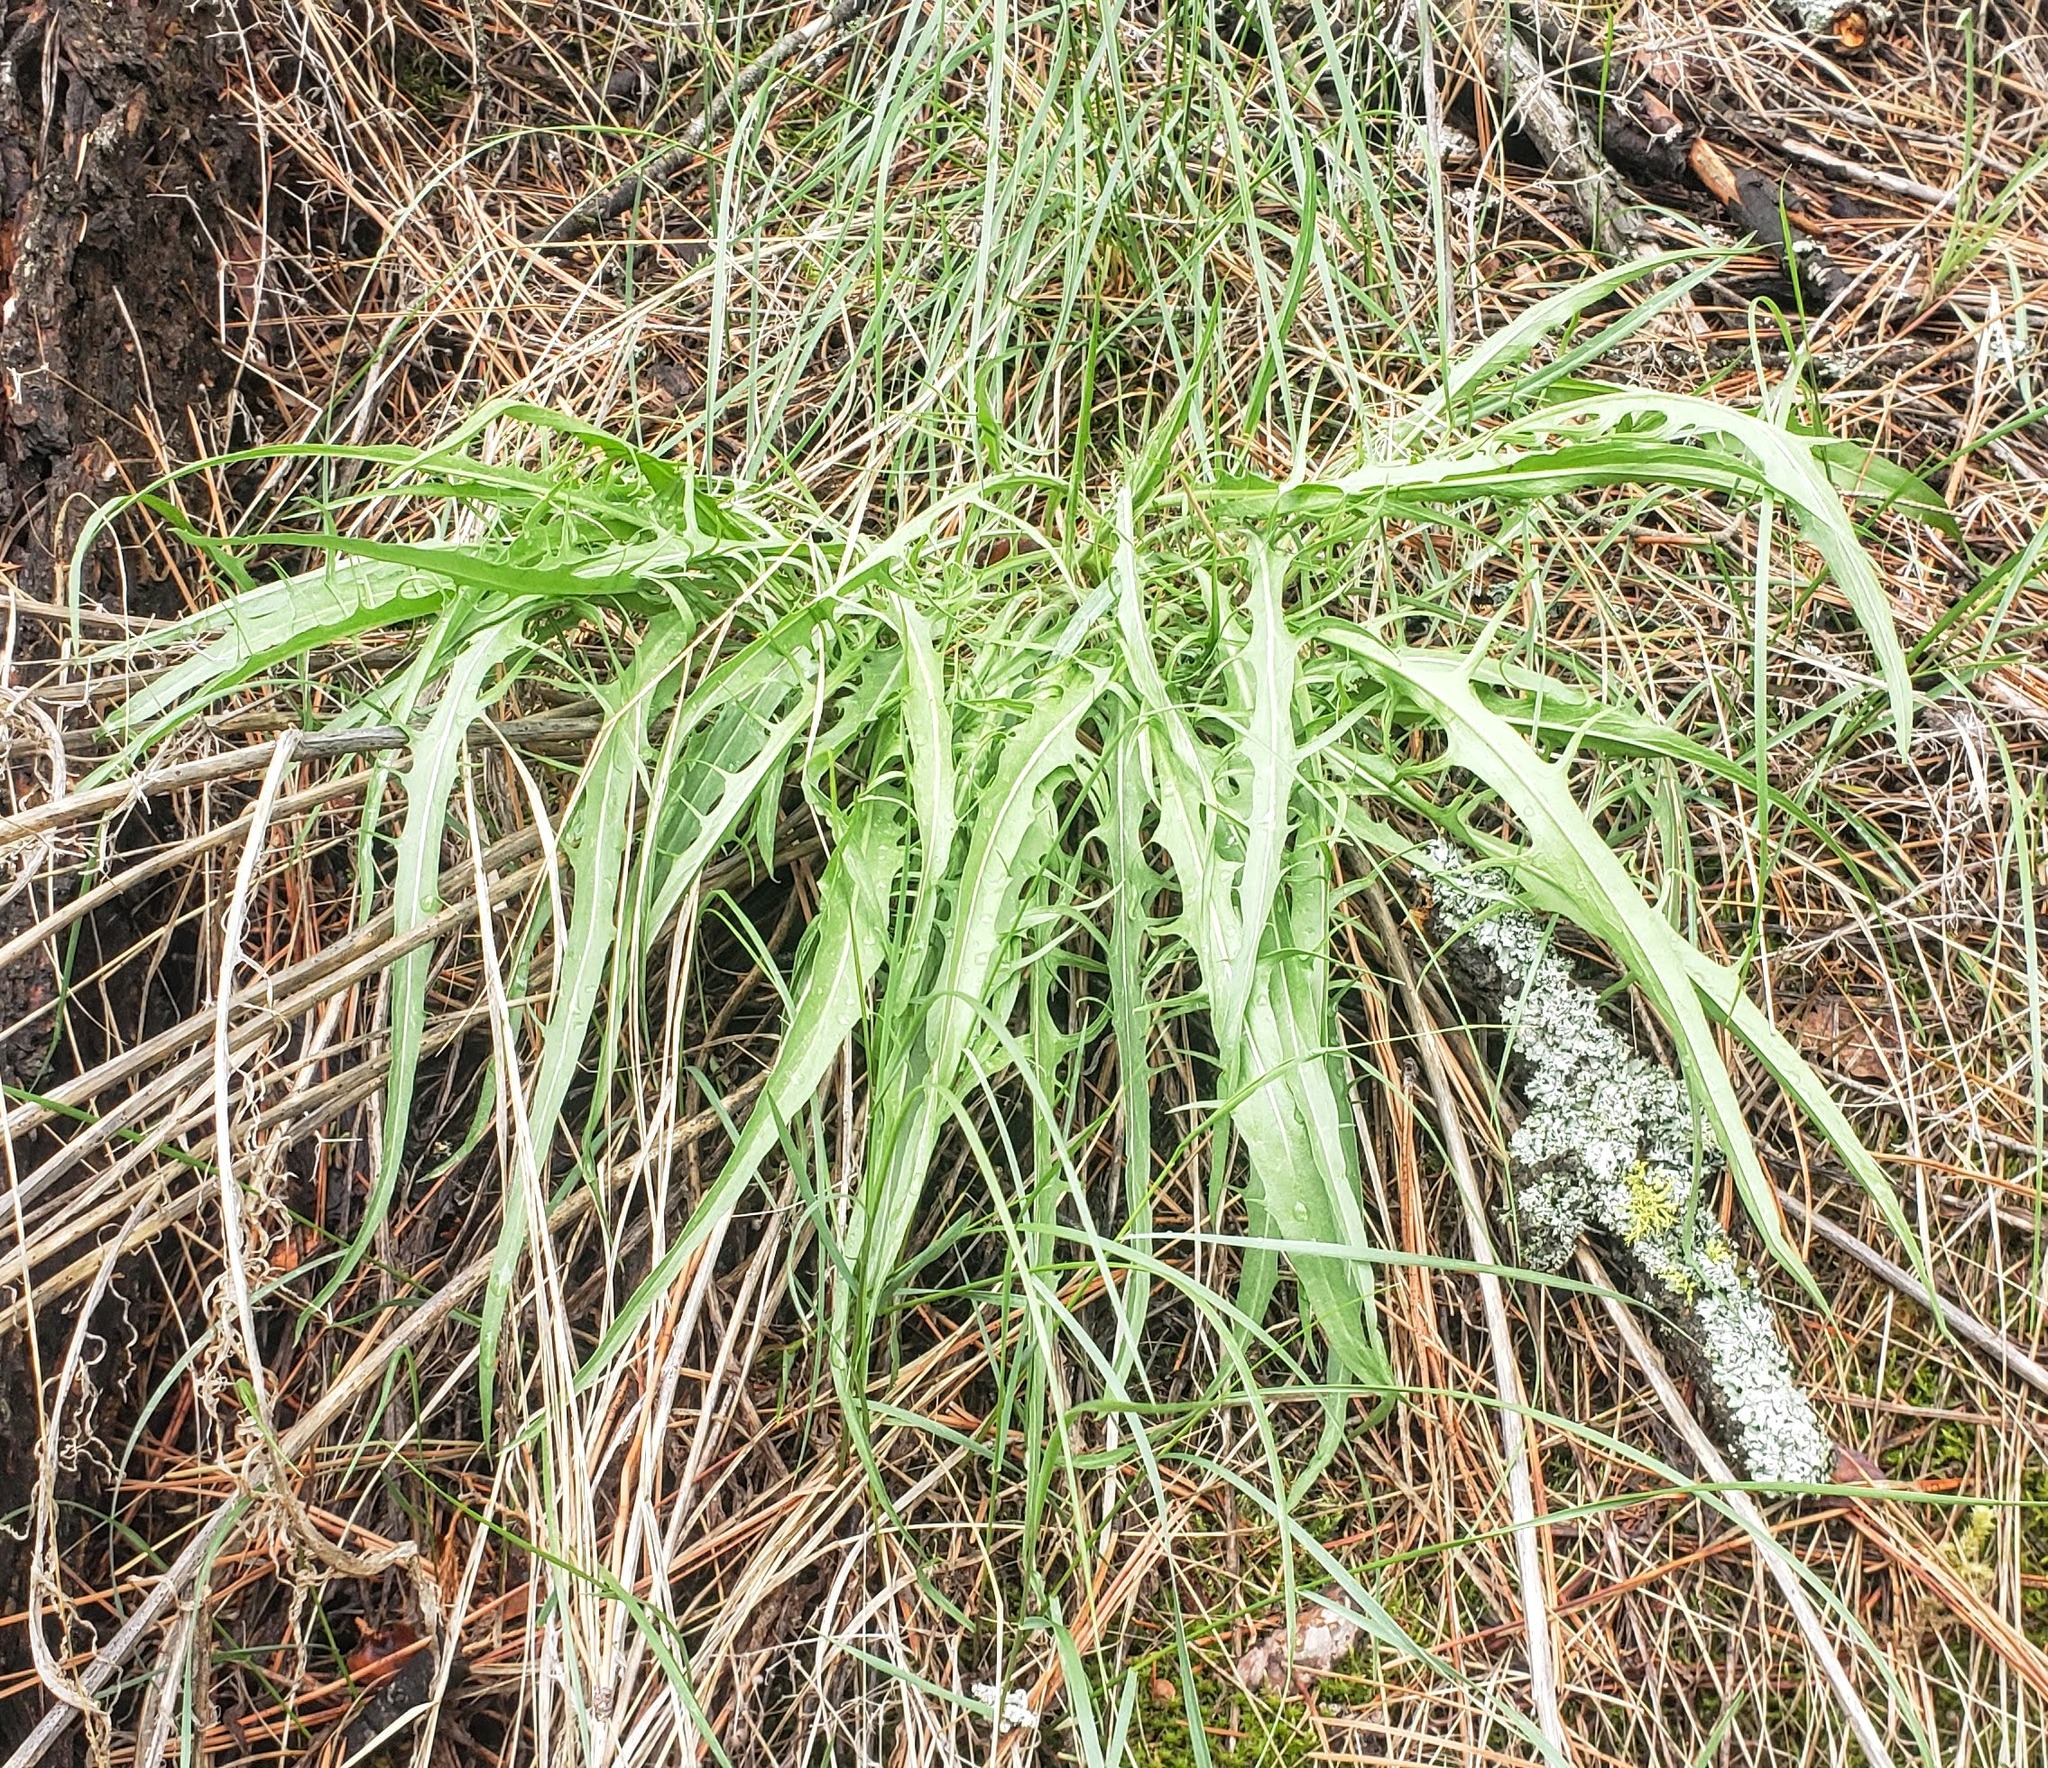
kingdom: Plantae
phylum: Tracheophyta
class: Magnoliopsida
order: Asterales
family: Asteraceae
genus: Crepis
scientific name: Crepis atribarba
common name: Dark hawk's-beard
